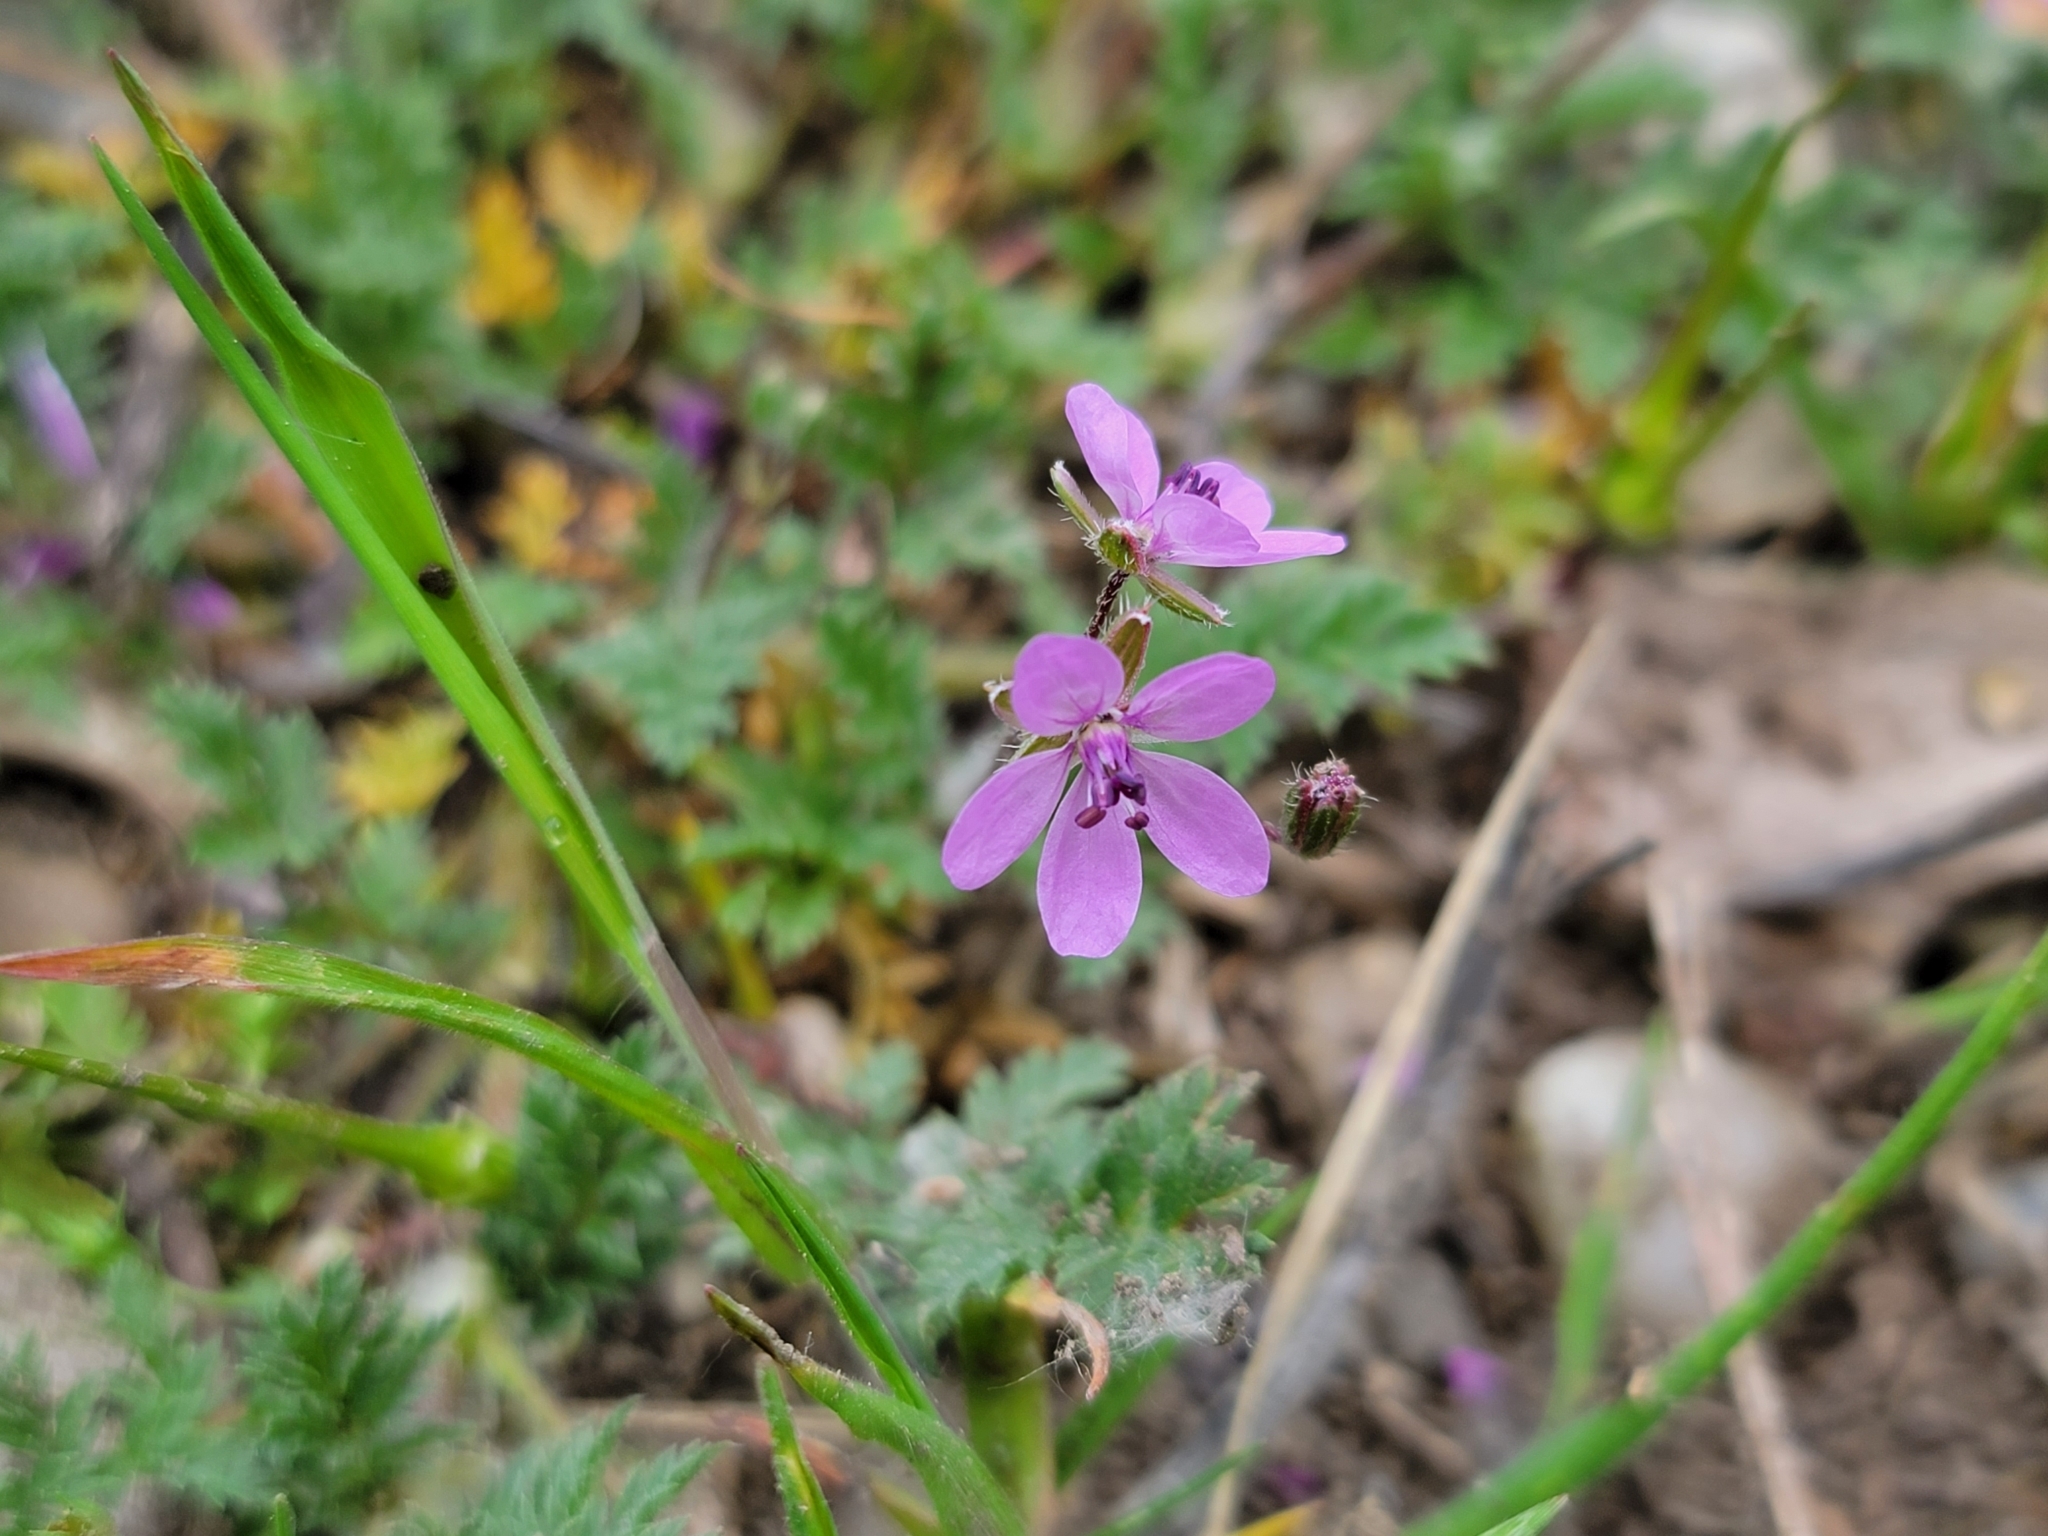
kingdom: Plantae
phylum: Tracheophyta
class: Magnoliopsida
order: Geraniales
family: Geraniaceae
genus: Erodium
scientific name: Erodium cicutarium
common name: Common stork's-bill
